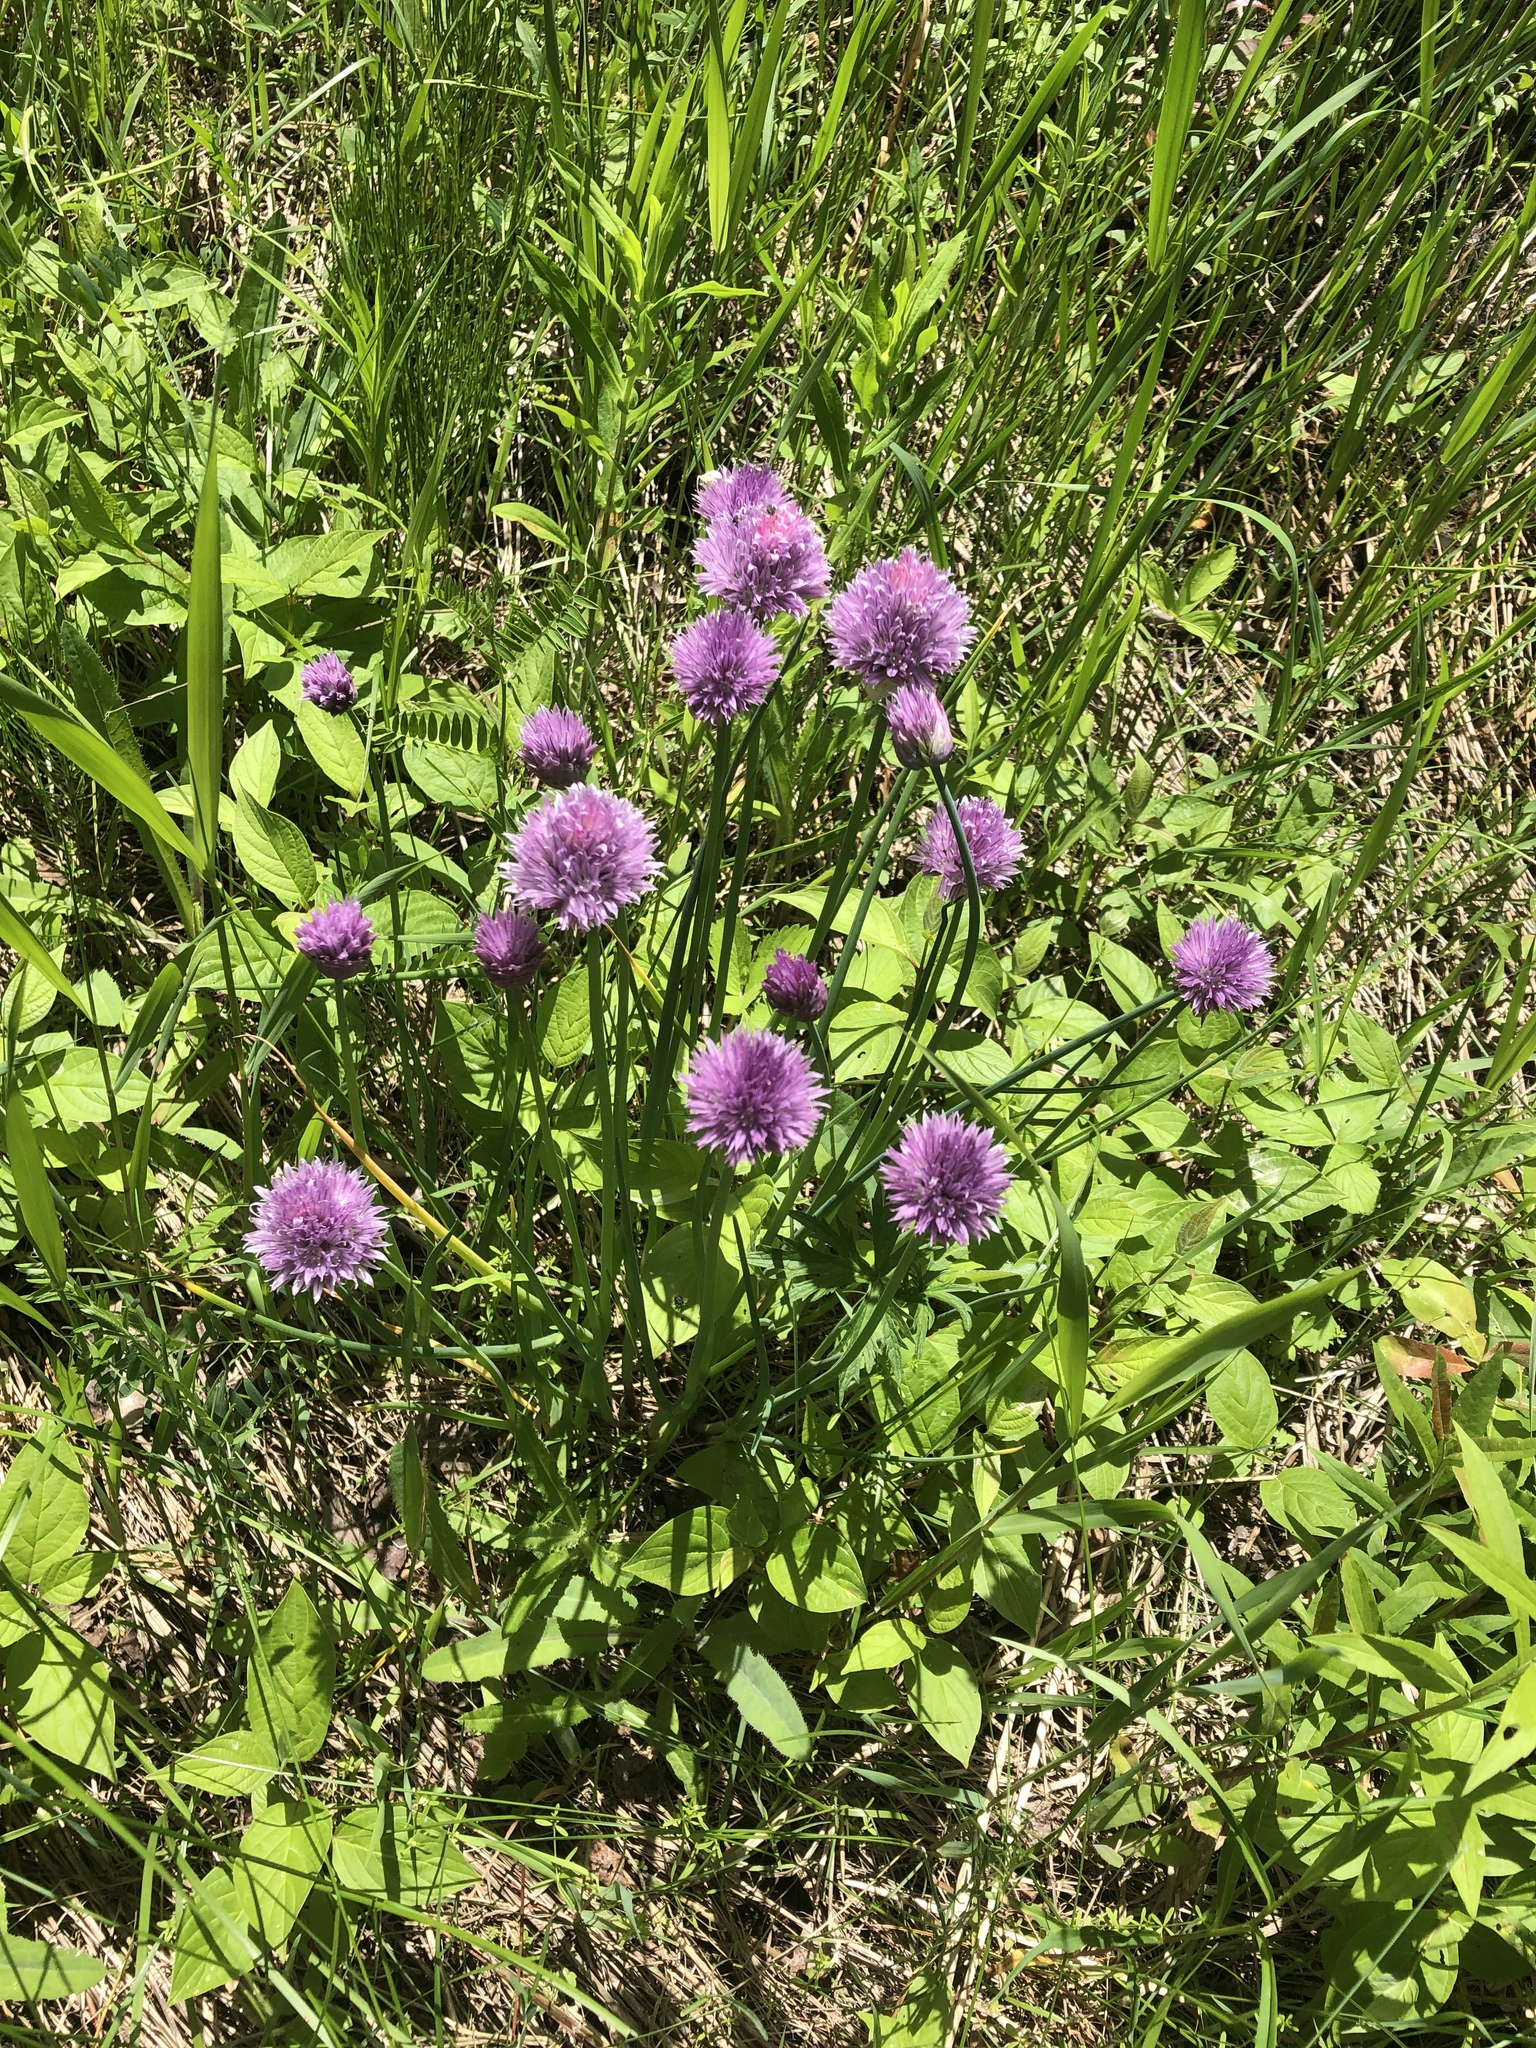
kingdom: Plantae
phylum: Tracheophyta
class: Liliopsida
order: Asparagales
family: Amaryllidaceae
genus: Allium
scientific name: Allium schoenoprasum
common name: Chives
